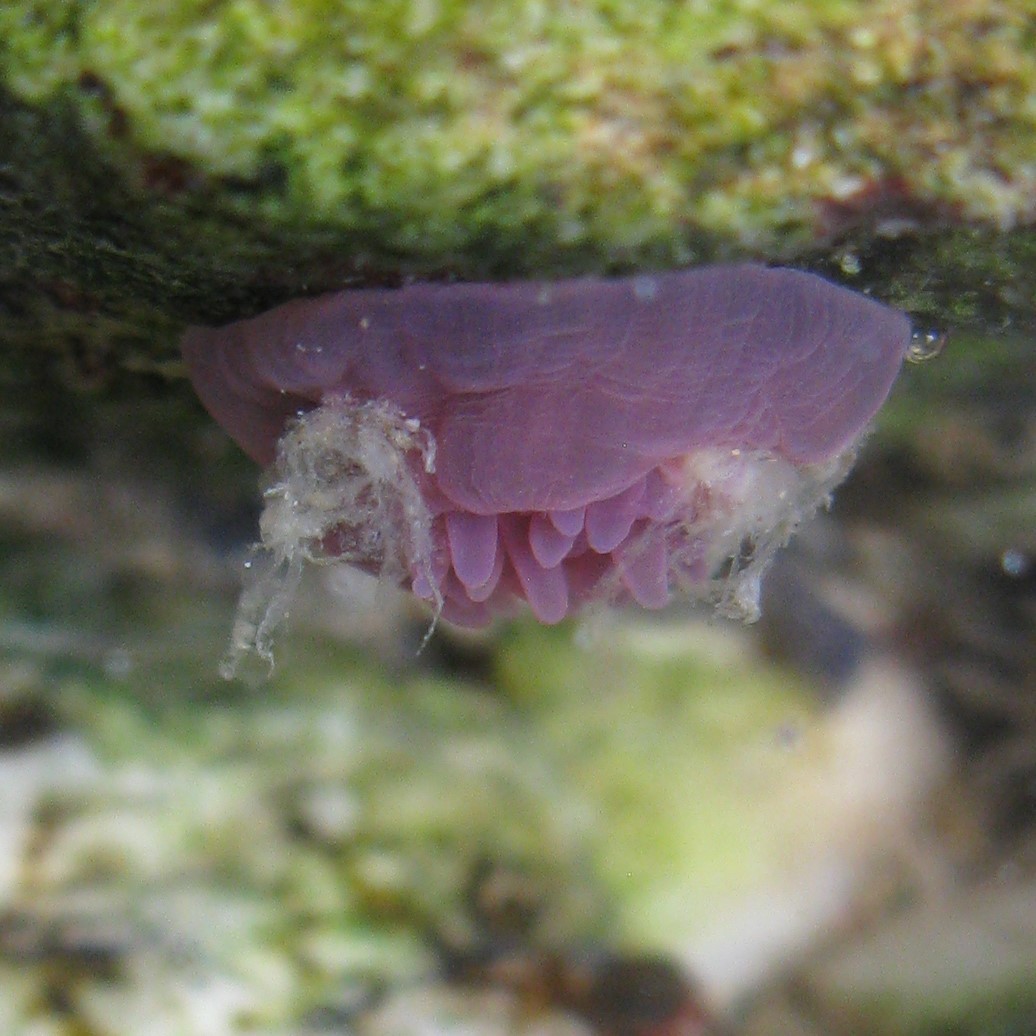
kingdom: Animalia
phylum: Cnidaria
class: Anthozoa
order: Actiniaria
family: Actiniidae
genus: Actinia
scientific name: Actinia tenebrosa
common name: Waratah anemone
